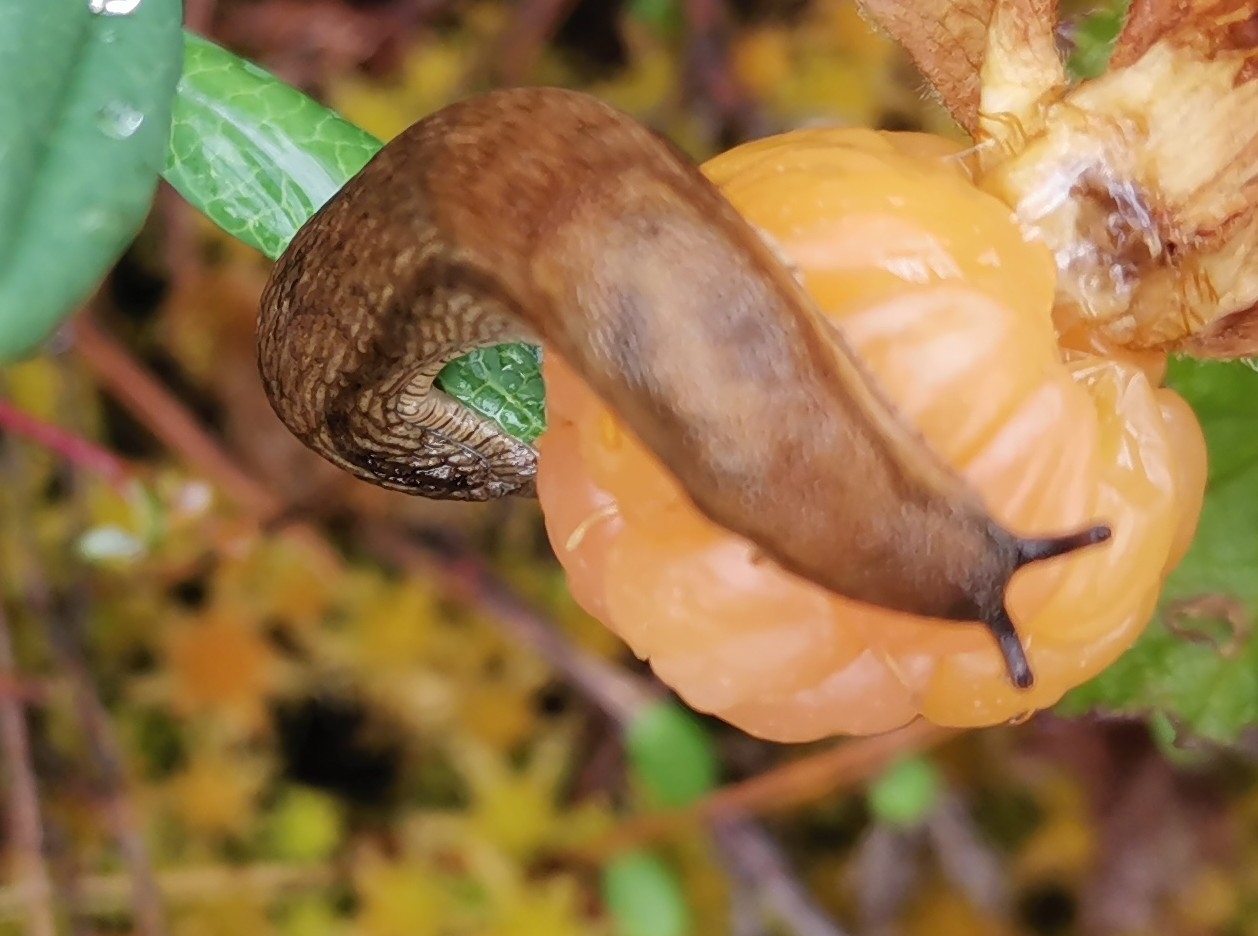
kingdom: Animalia
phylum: Mollusca
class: Gastropoda
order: Stylommatophora
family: Arionidae
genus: Arion
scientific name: Arion fuscus
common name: Northern dusky slug
